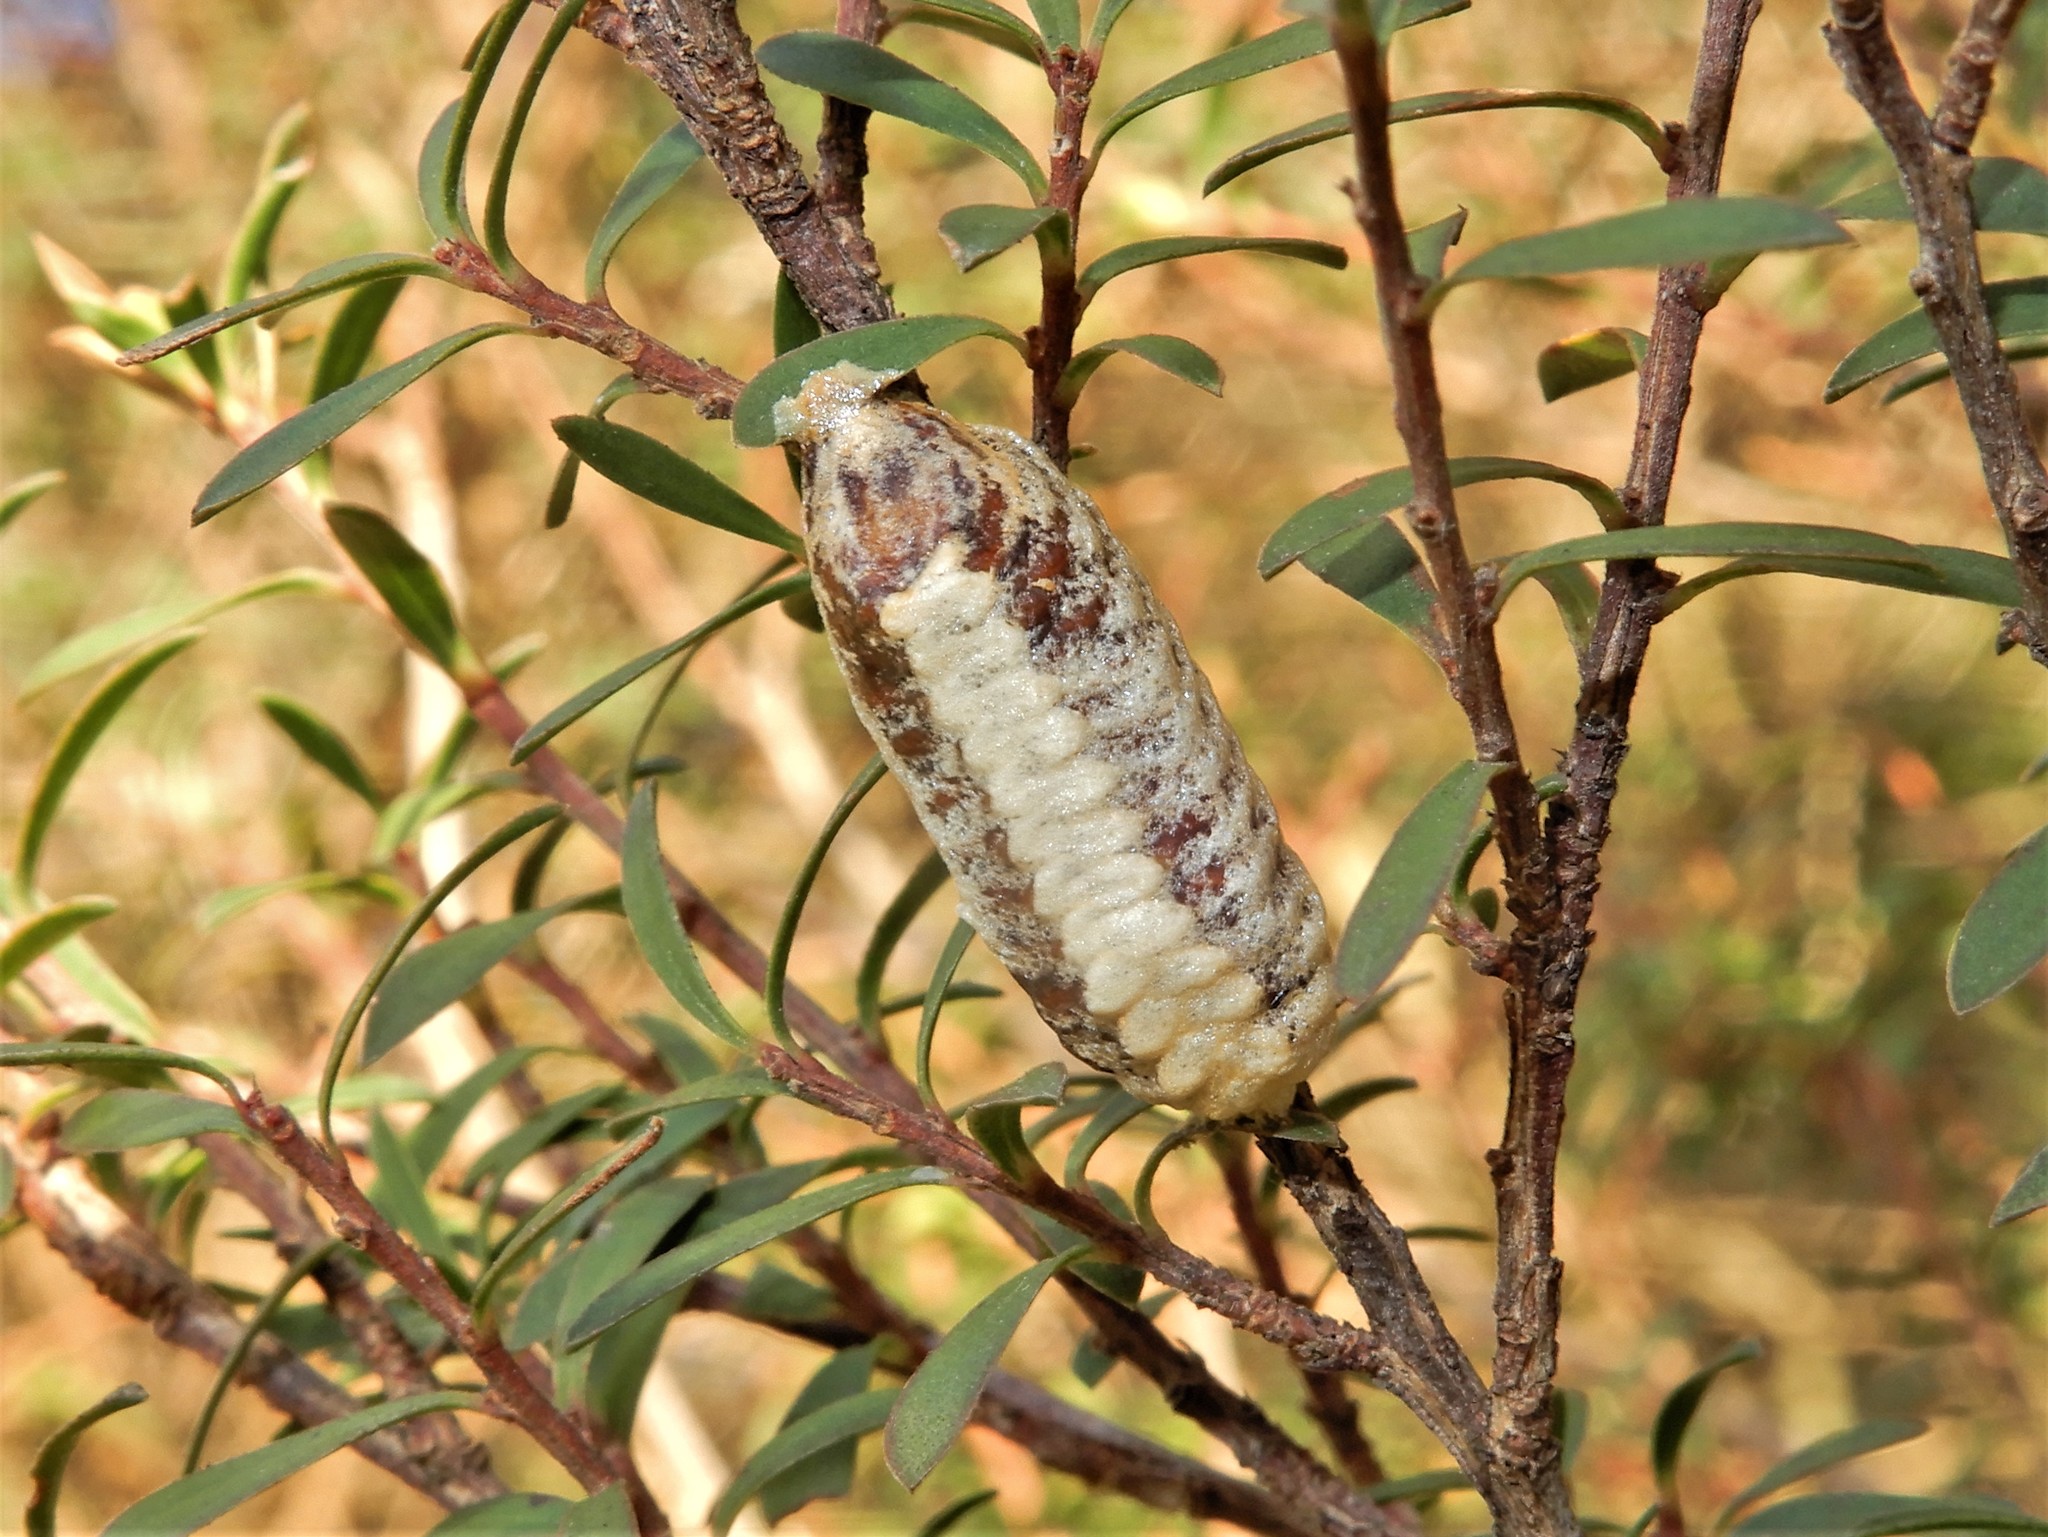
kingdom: Animalia
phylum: Arthropoda
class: Insecta
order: Mantodea
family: Mantidae
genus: Orthodera
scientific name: Orthodera novaezealandiae
